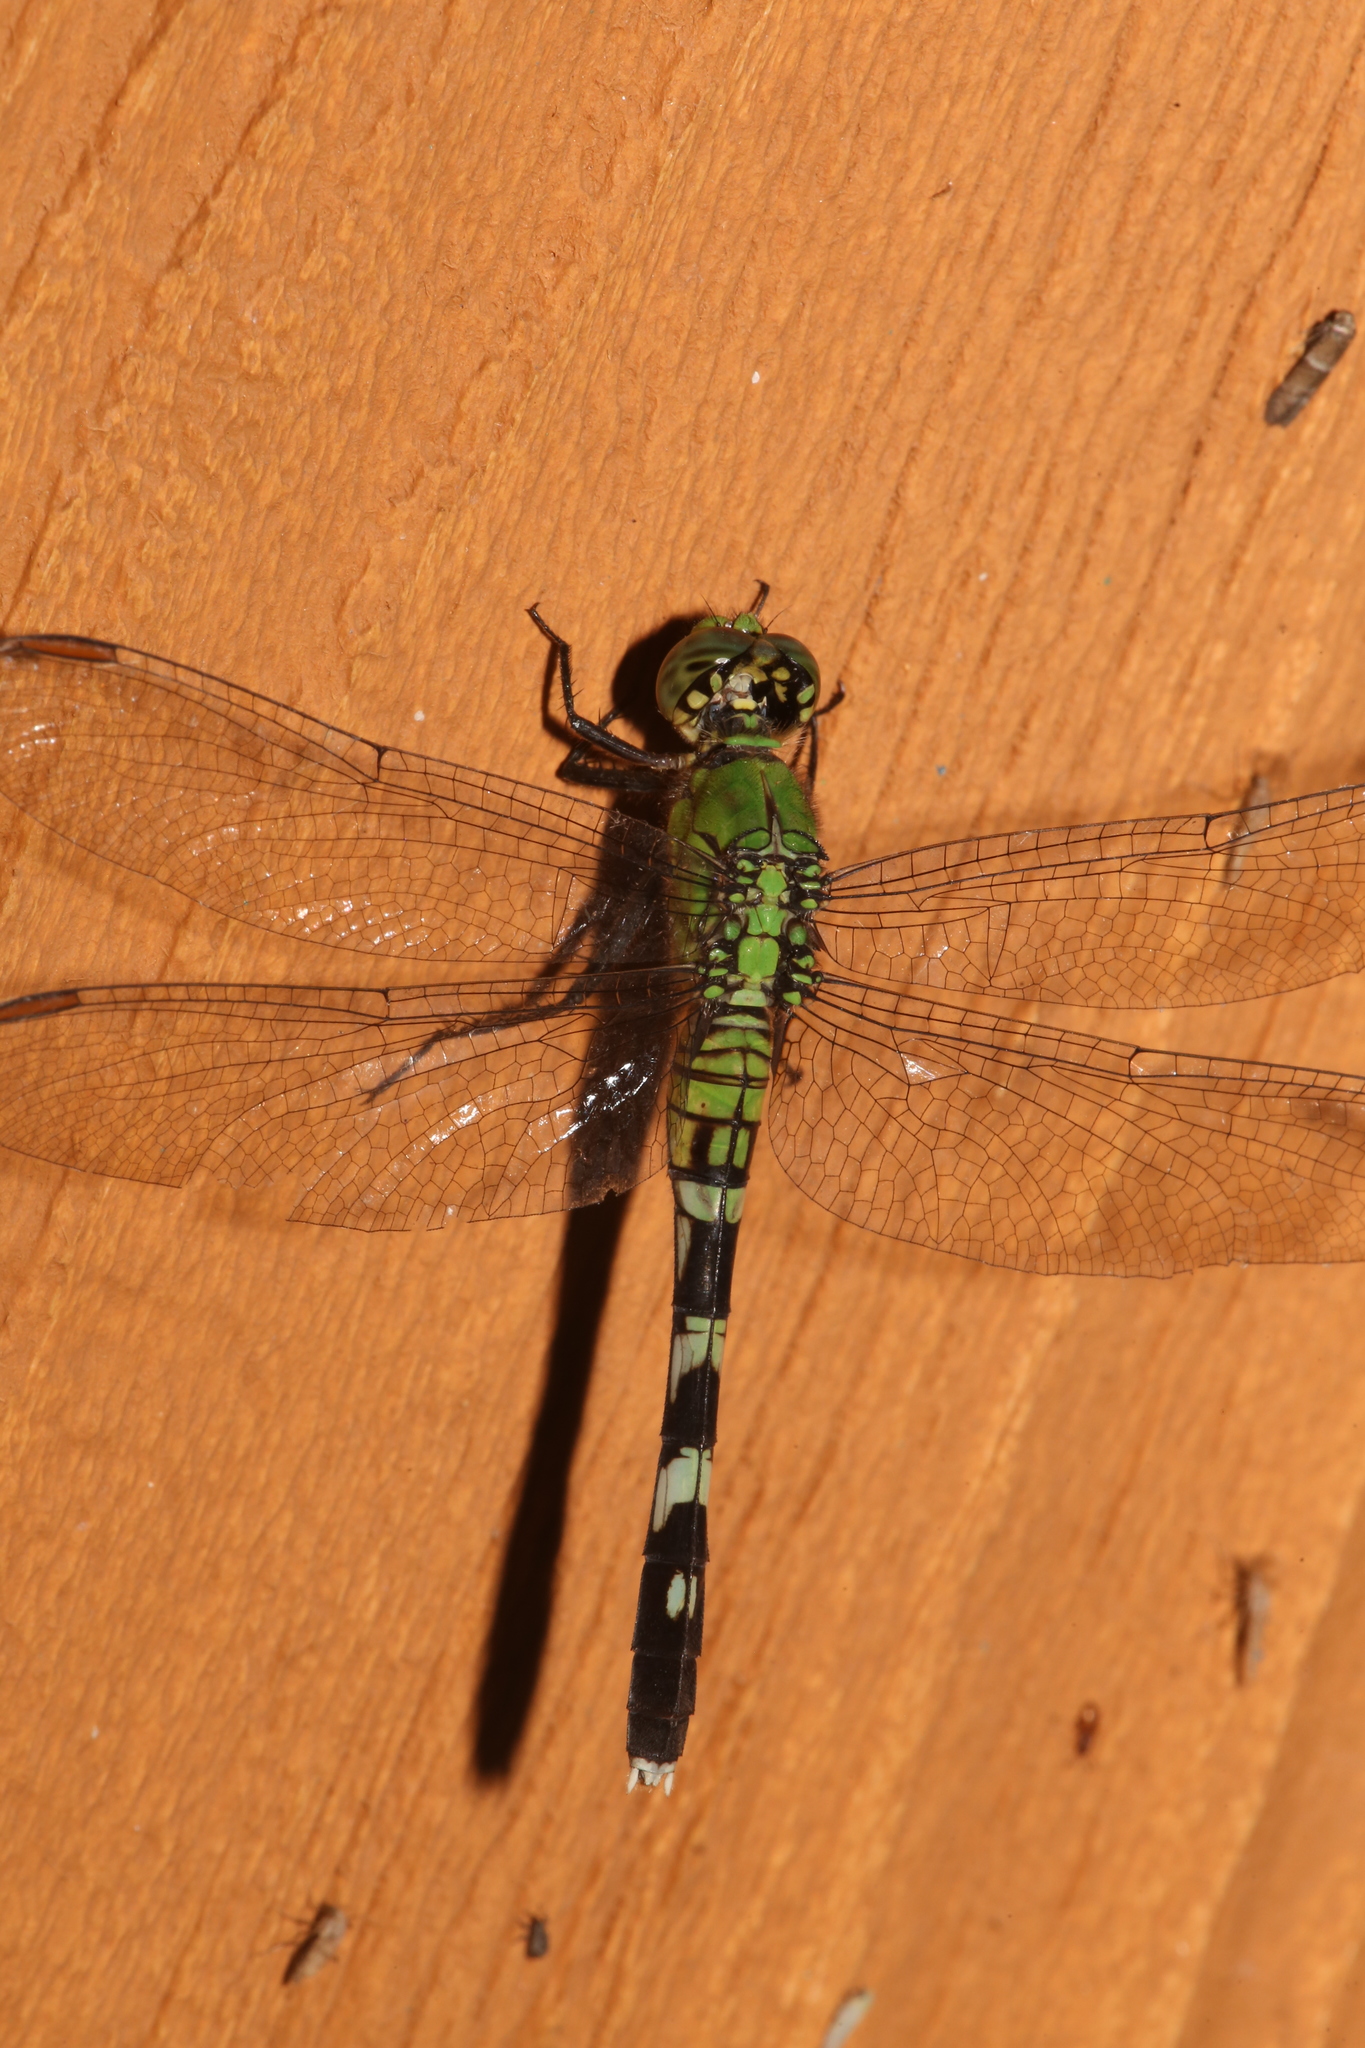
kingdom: Animalia
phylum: Arthropoda
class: Insecta
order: Odonata
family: Libellulidae
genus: Erythemis
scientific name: Erythemis simplicicollis
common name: Eastern pondhawk
